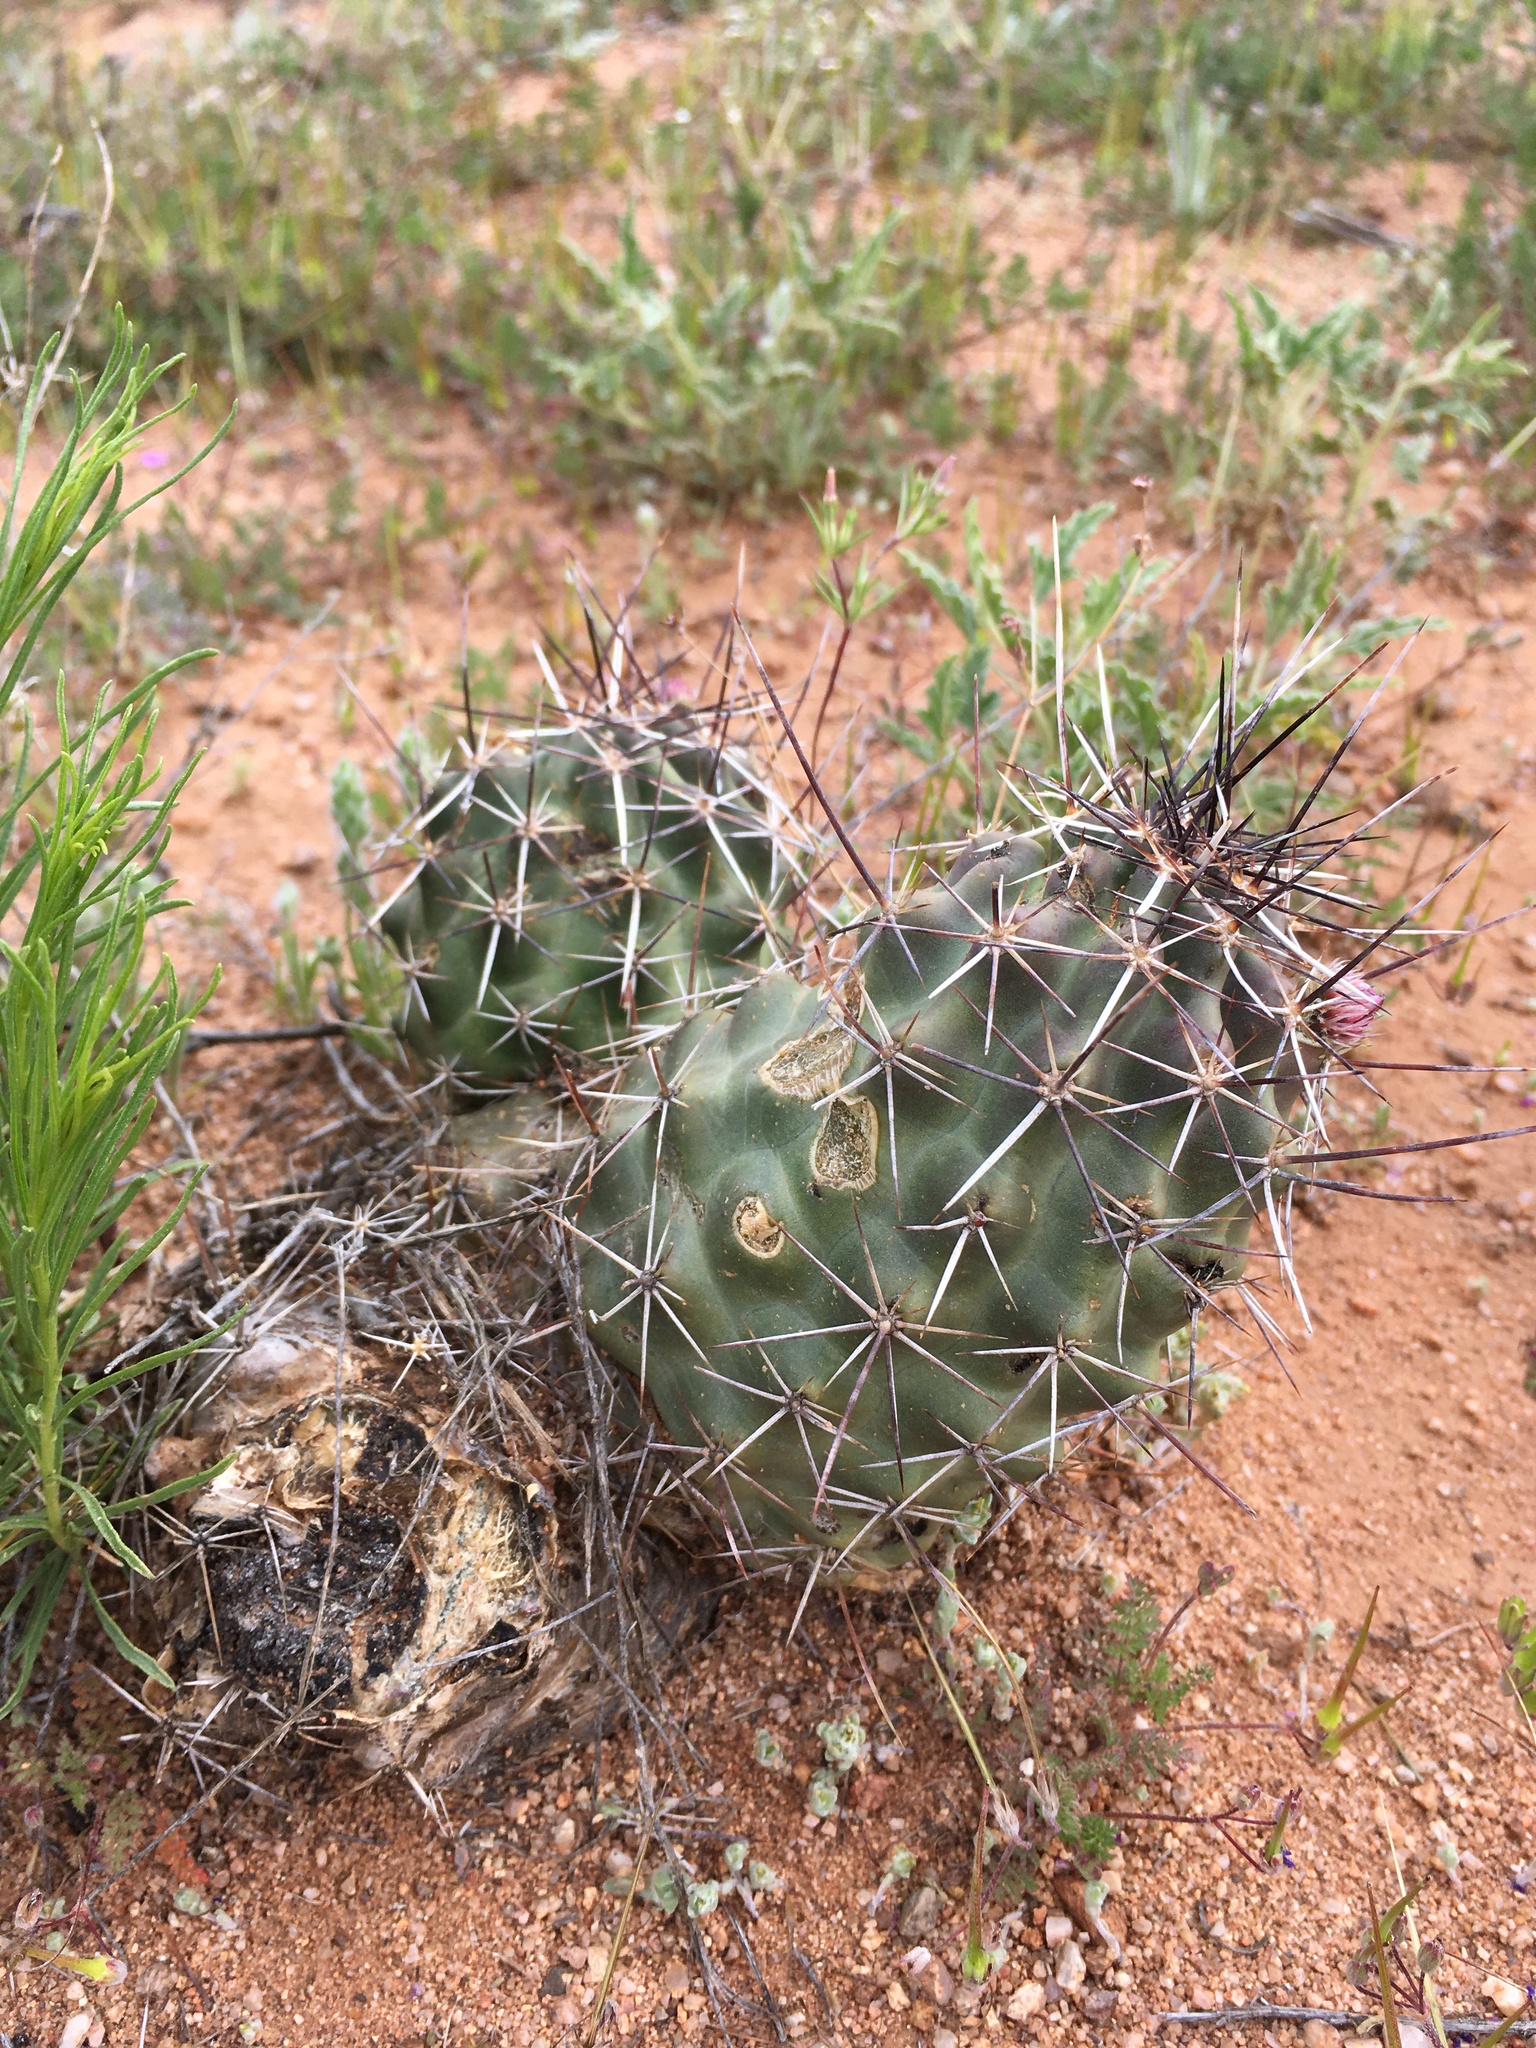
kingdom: Plantae
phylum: Tracheophyta
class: Magnoliopsida
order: Caryophyllales
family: Cactaceae
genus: Echinocereus
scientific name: Echinocereus fendleri
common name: Fendler's hedgehog cactus
